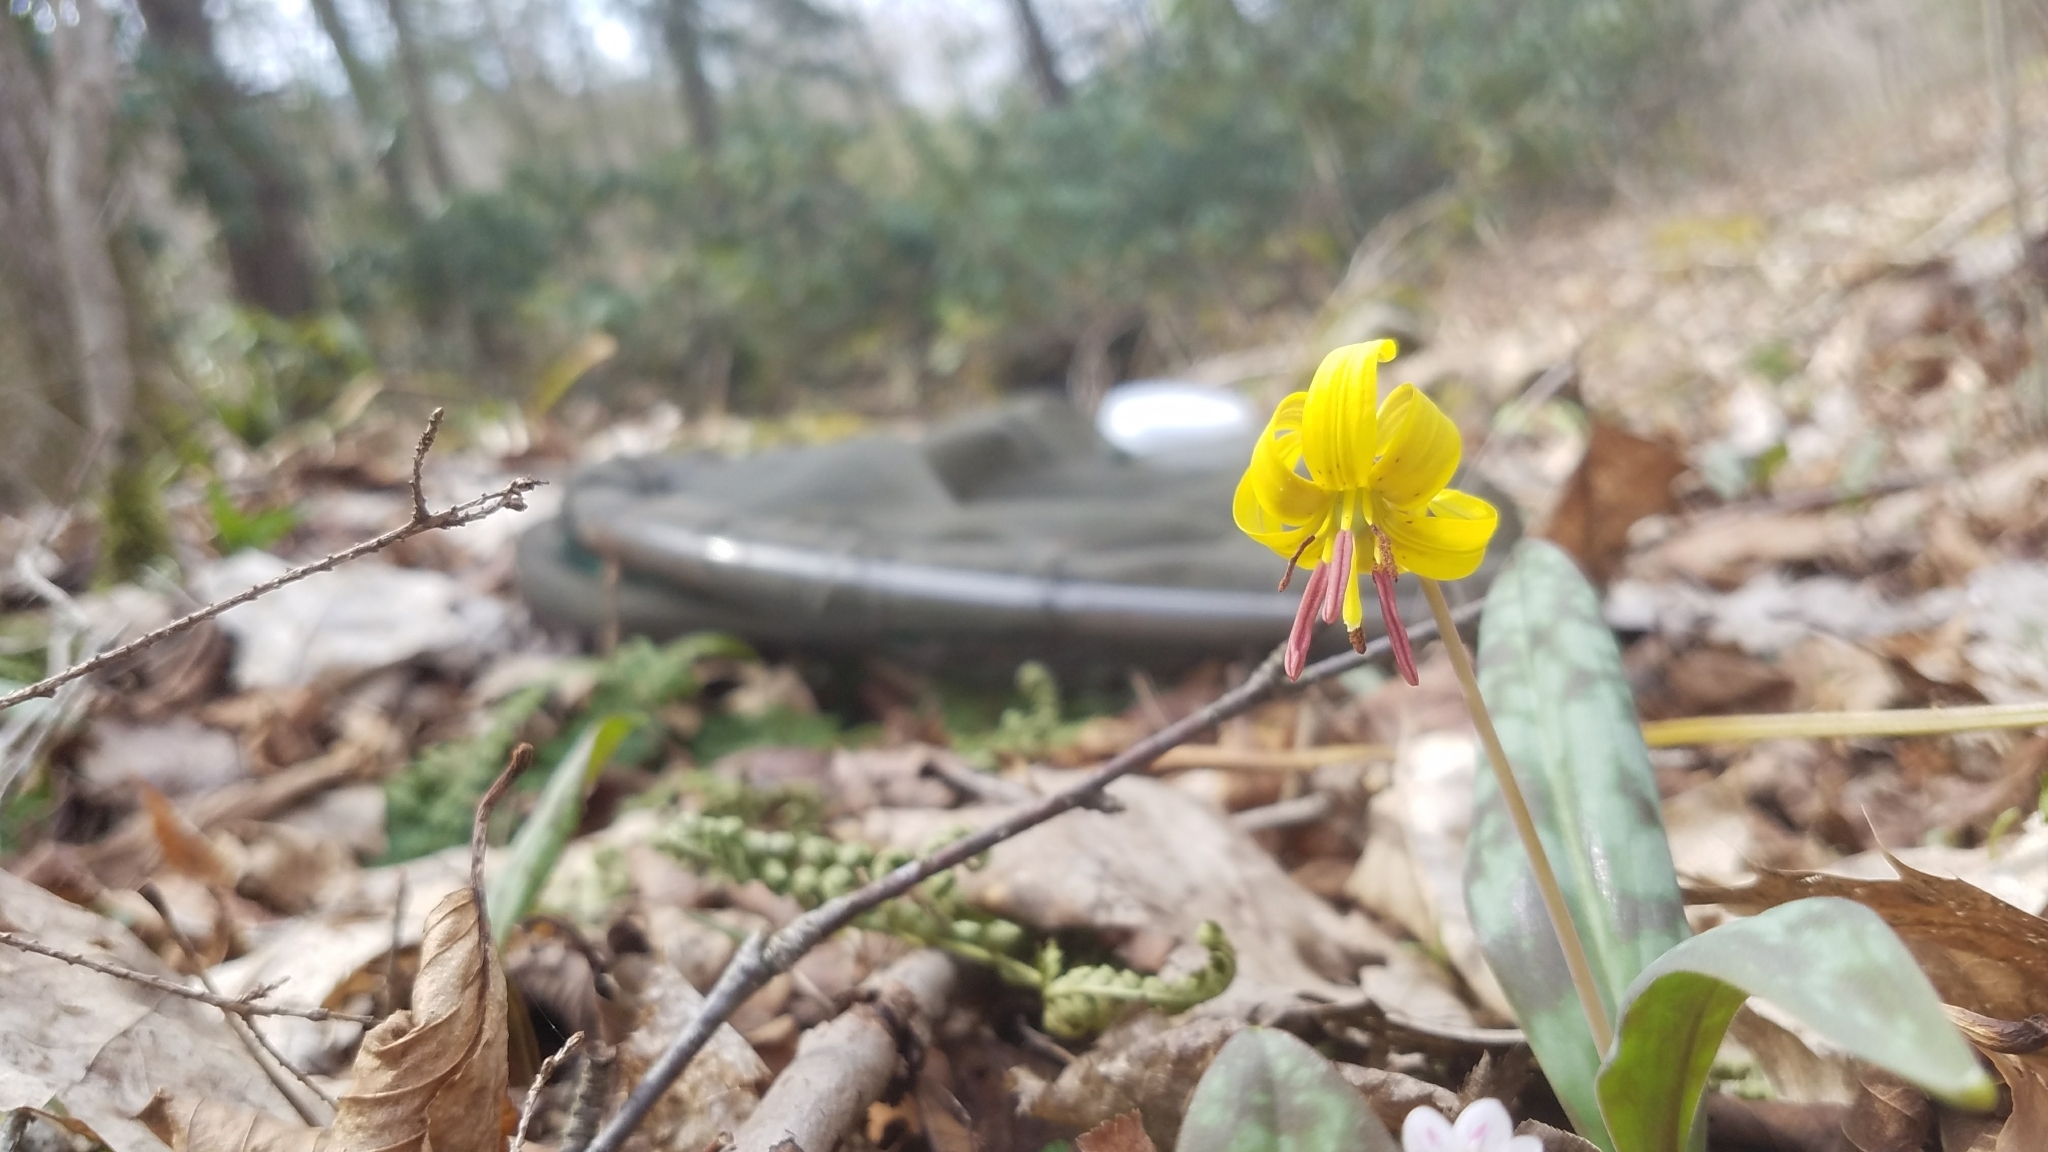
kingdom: Plantae
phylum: Tracheophyta
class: Liliopsida
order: Liliales
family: Liliaceae
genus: Erythronium
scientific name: Erythronium americanum
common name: Yellow adder's-tongue
